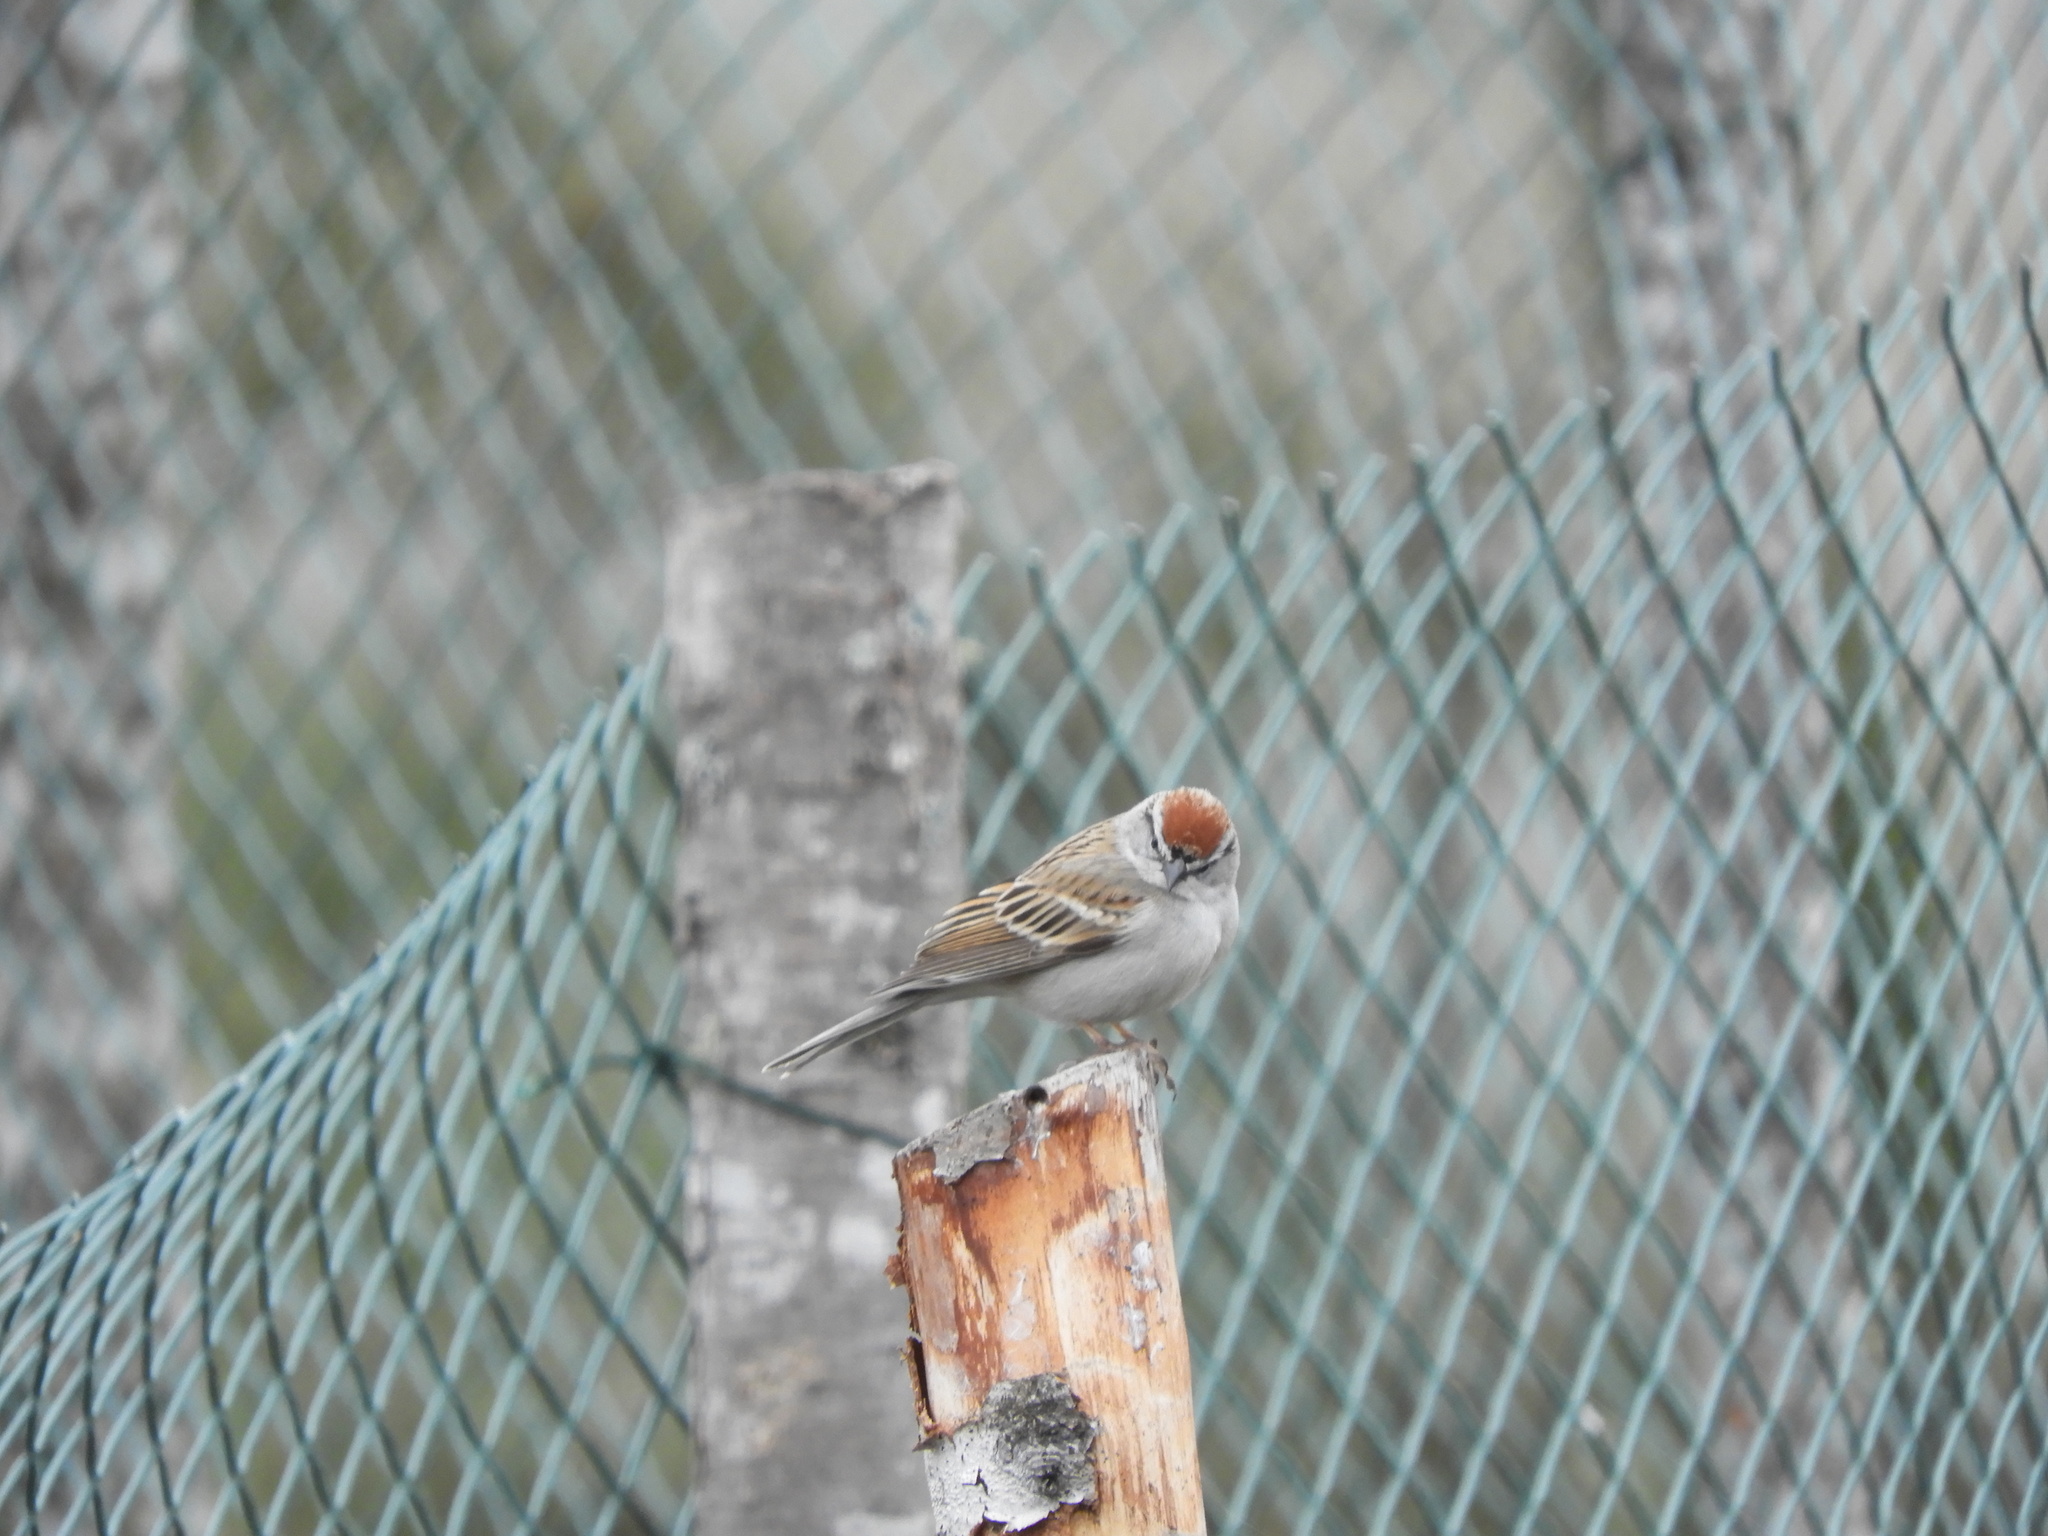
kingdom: Animalia
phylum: Chordata
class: Aves
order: Passeriformes
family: Passerellidae
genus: Spizella
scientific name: Spizella passerina
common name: Chipping sparrow
